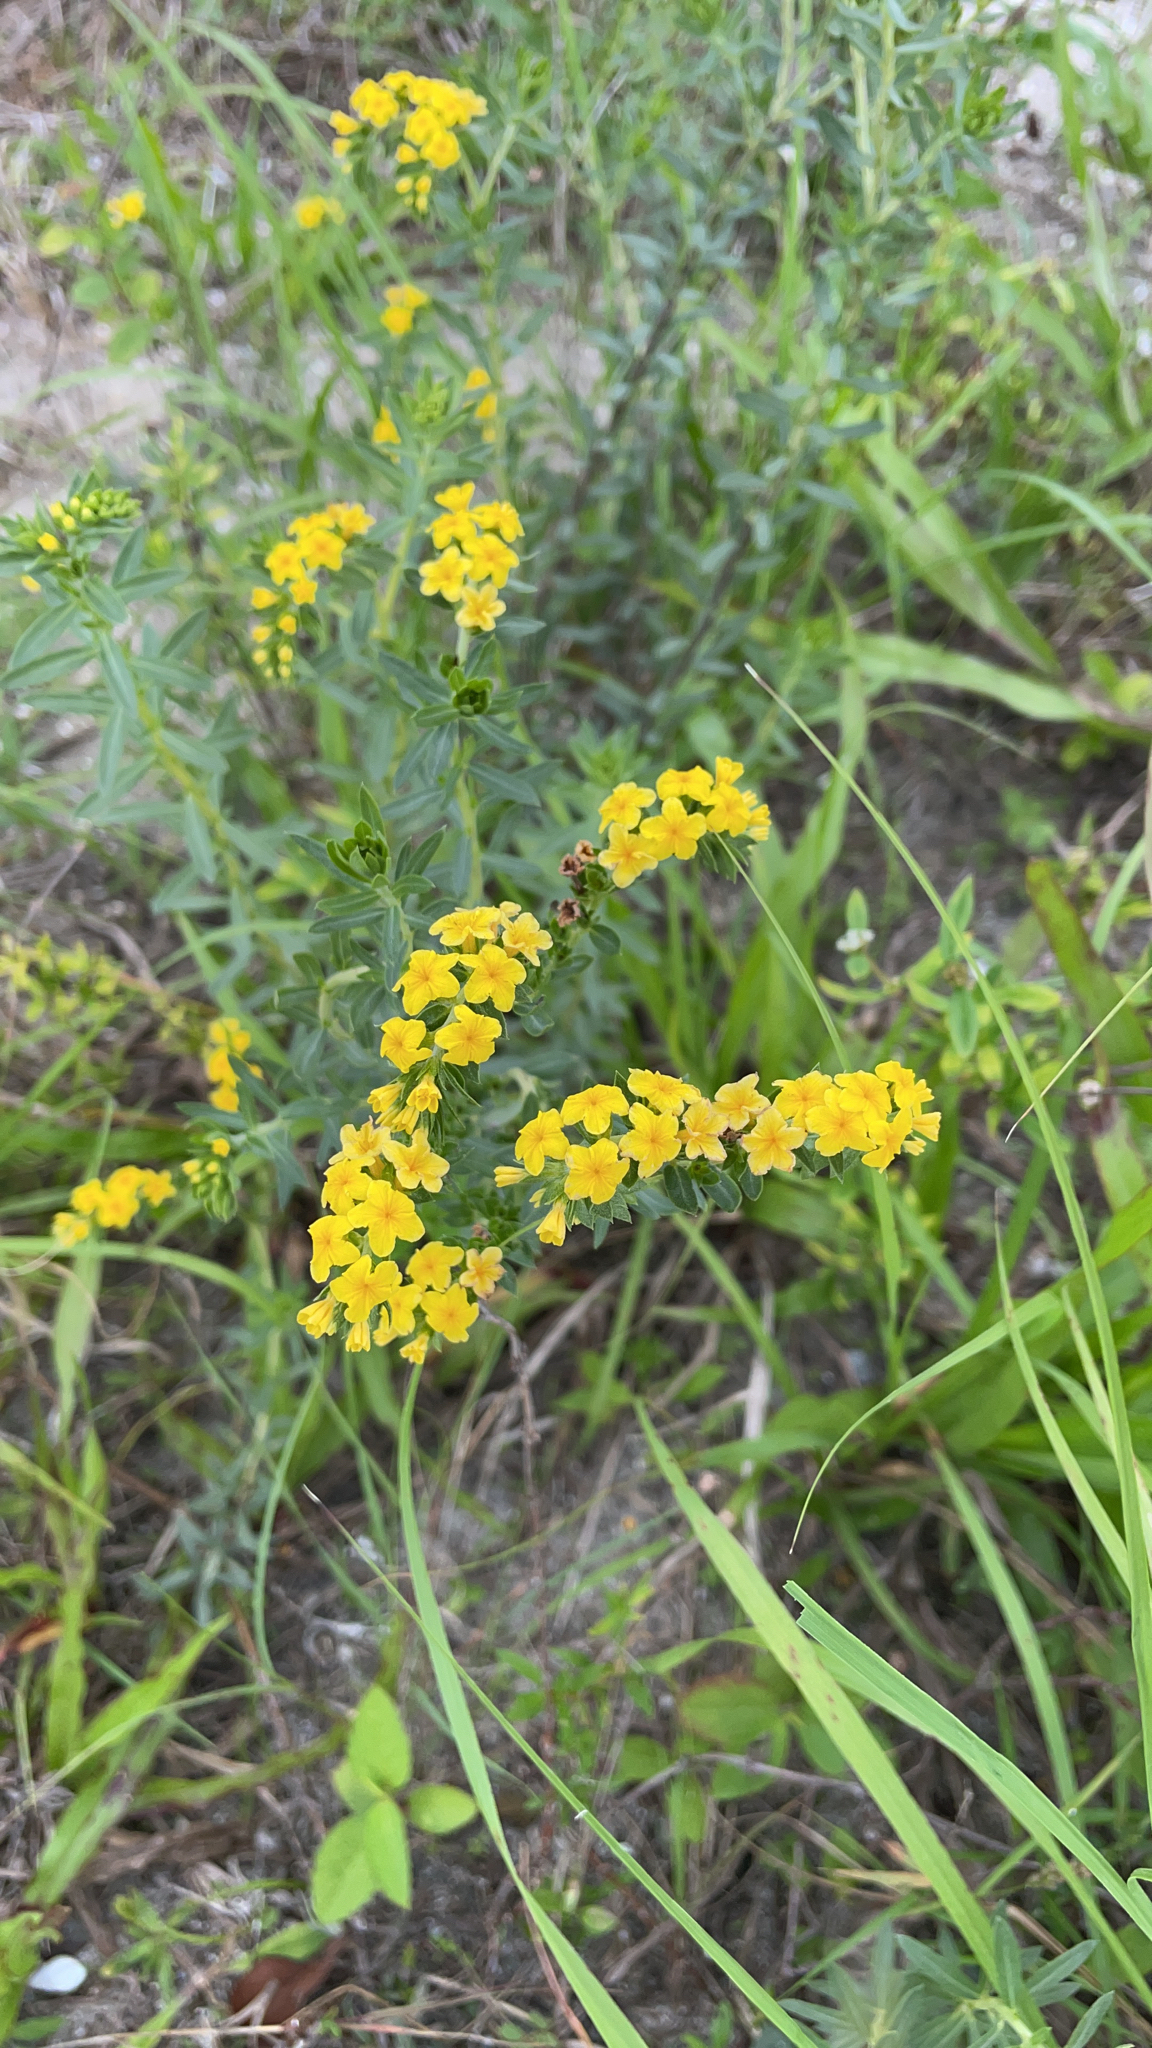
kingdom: Plantae
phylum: Tracheophyta
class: Magnoliopsida
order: Boraginales
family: Heliotropiaceae
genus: Euploca
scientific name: Euploca polyphylla
